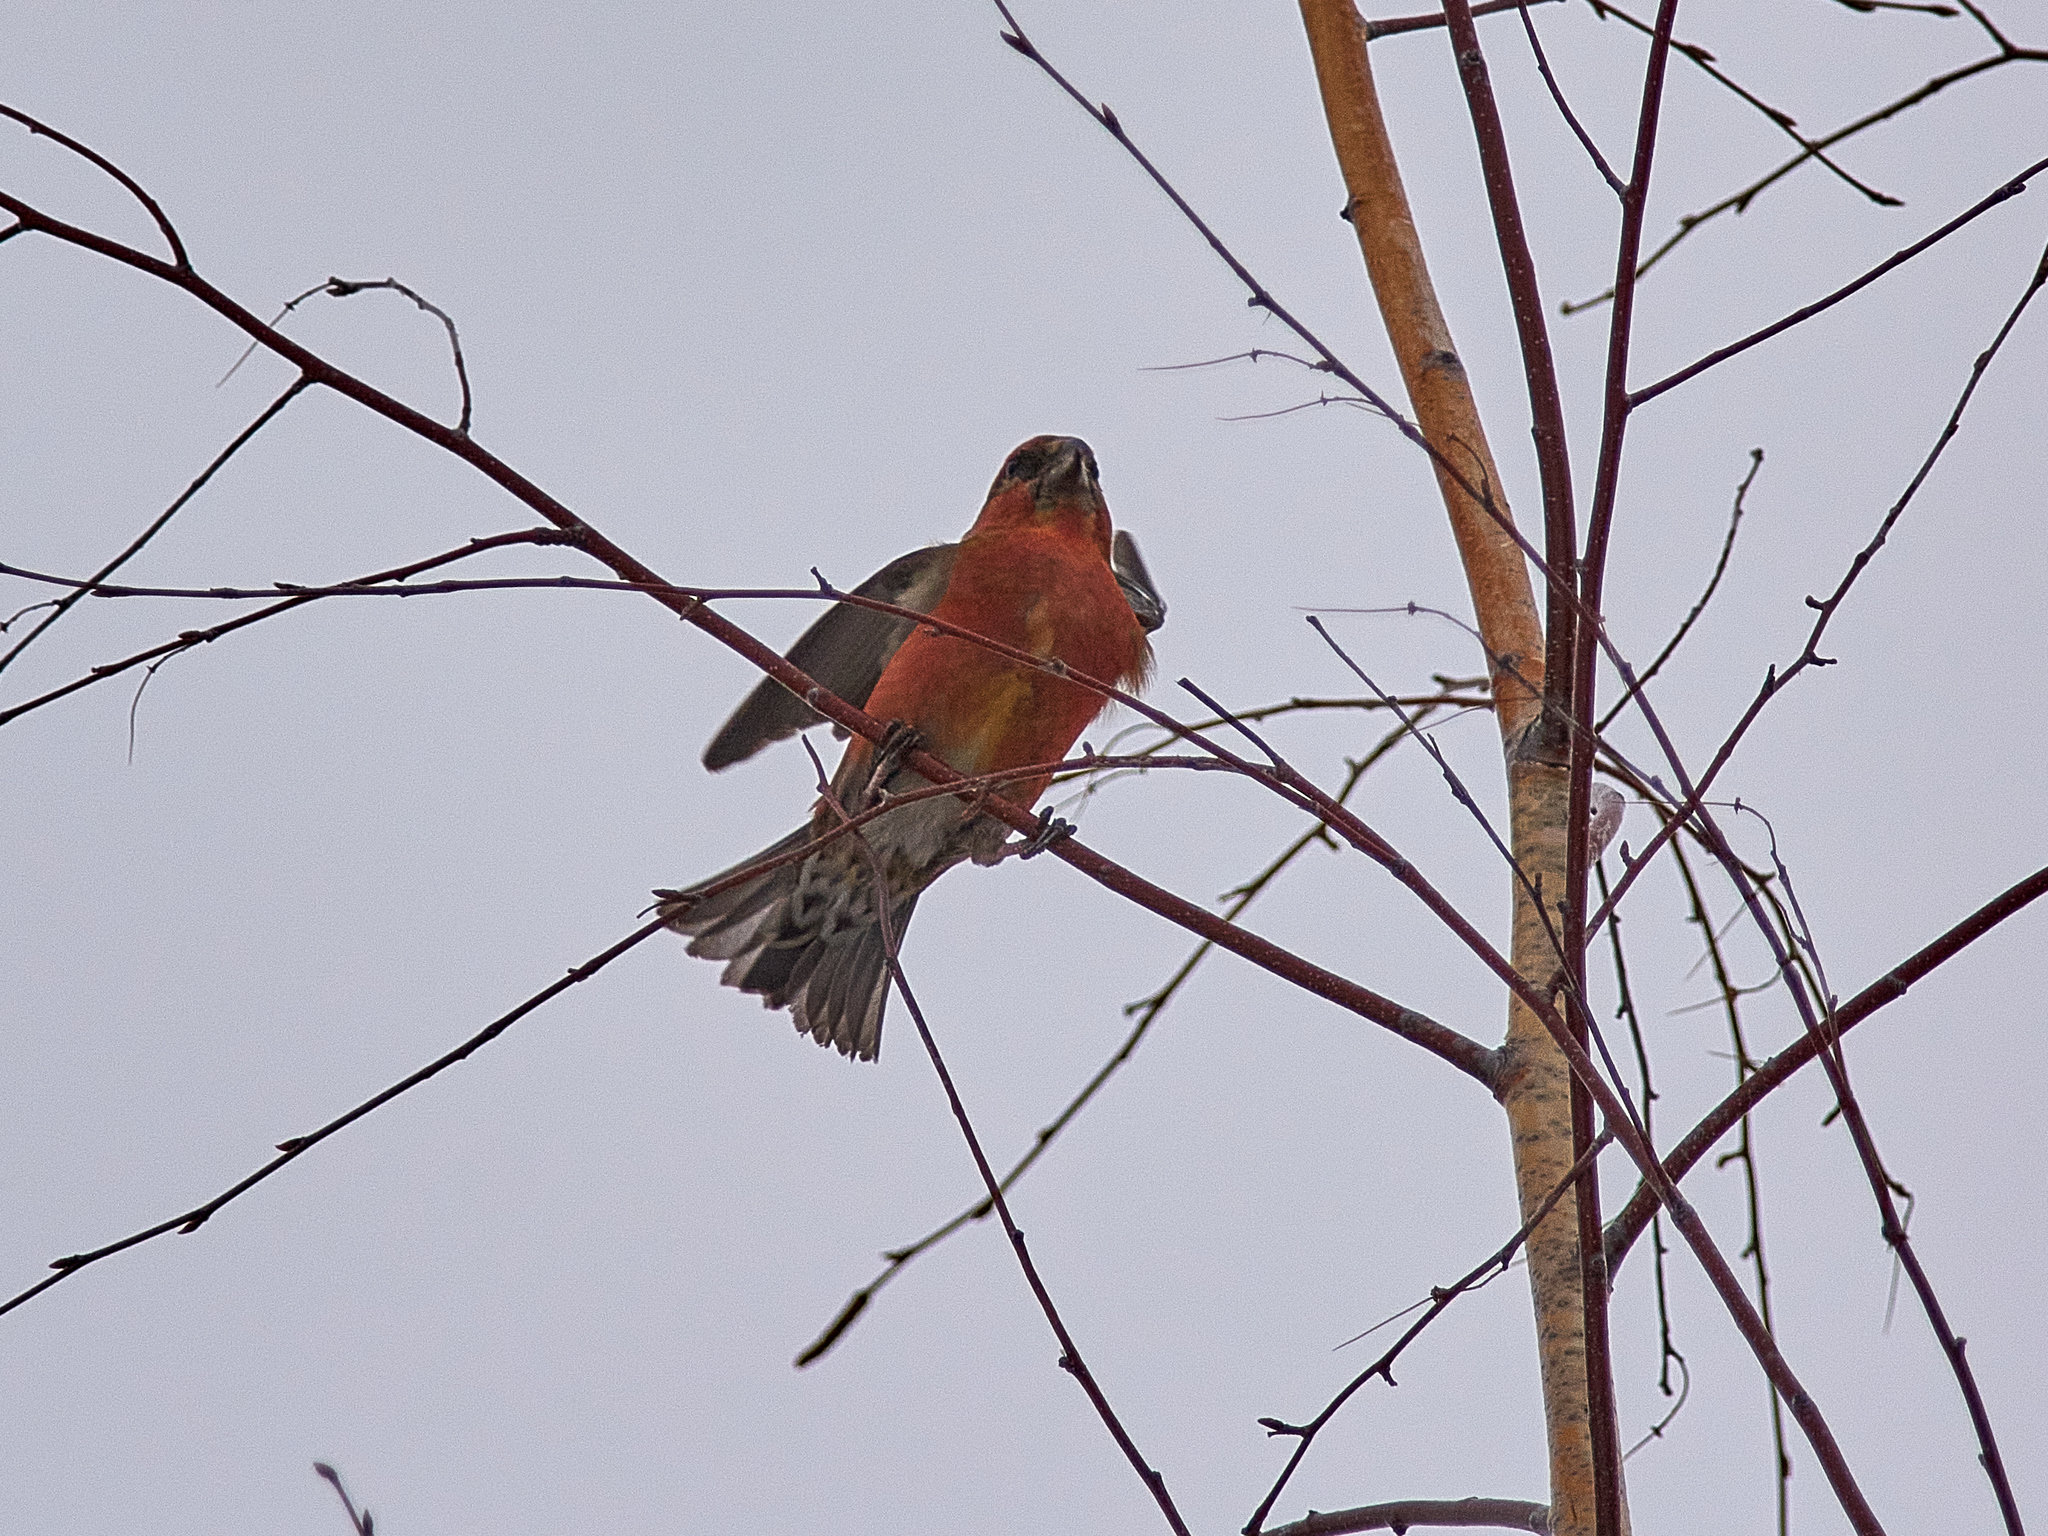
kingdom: Animalia
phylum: Chordata
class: Aves
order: Passeriformes
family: Fringillidae
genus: Loxia
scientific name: Loxia curvirostra
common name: Red crossbill
